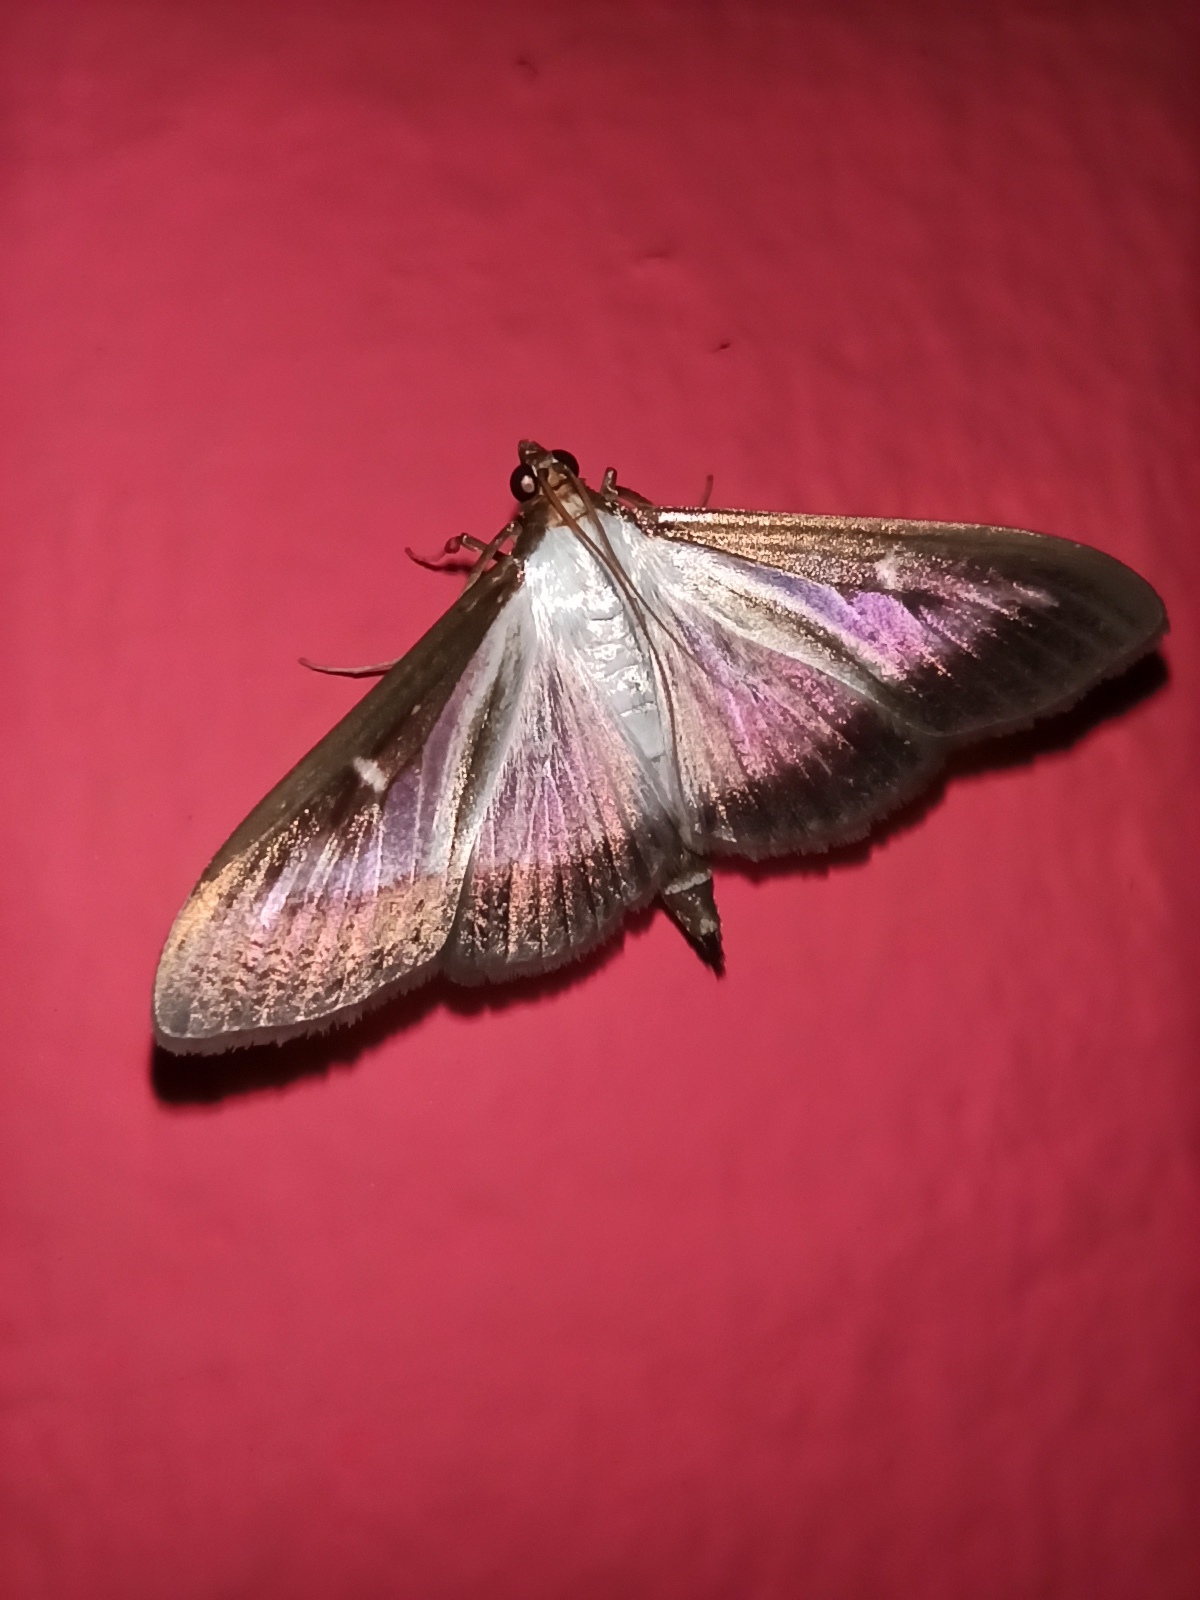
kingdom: Animalia
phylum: Arthropoda
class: Insecta
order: Lepidoptera
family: Crambidae
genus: Cydalima
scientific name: Cydalima perspectalis
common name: Box tree moth
